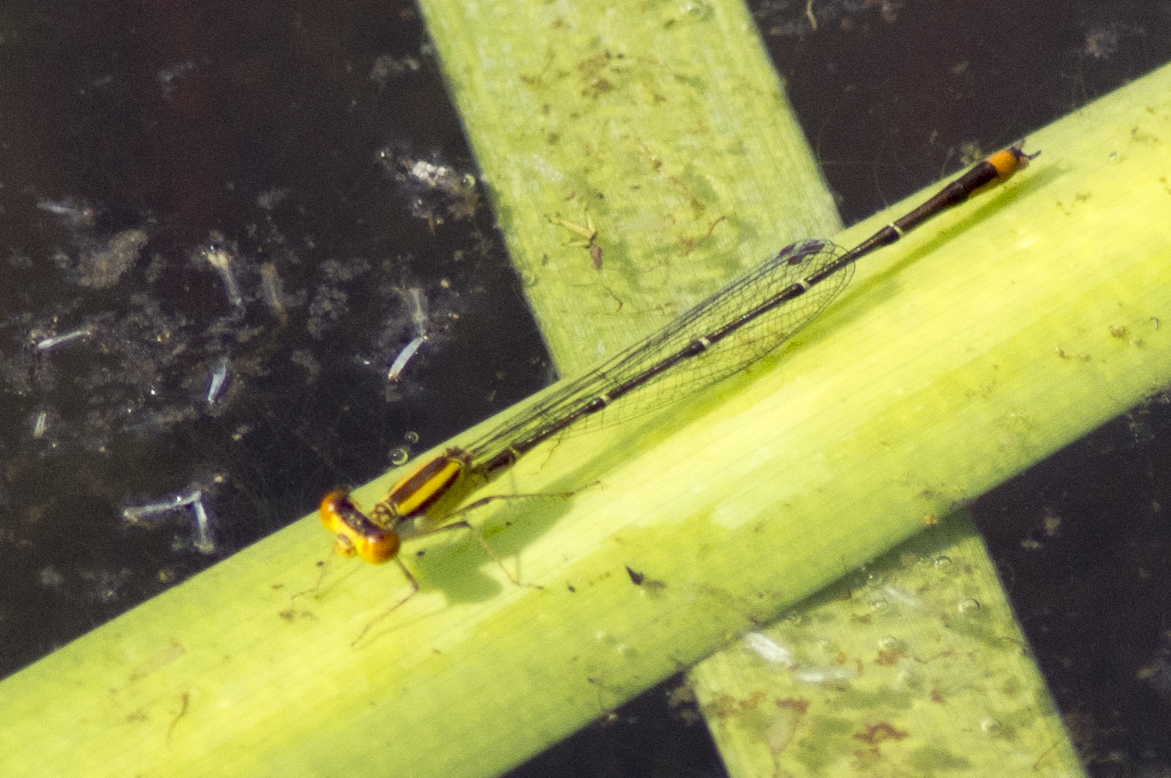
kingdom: Animalia
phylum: Arthropoda
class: Insecta
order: Odonata
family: Coenagrionidae
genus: Enallagma
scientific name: Enallagma signatum
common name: Orange bluet
